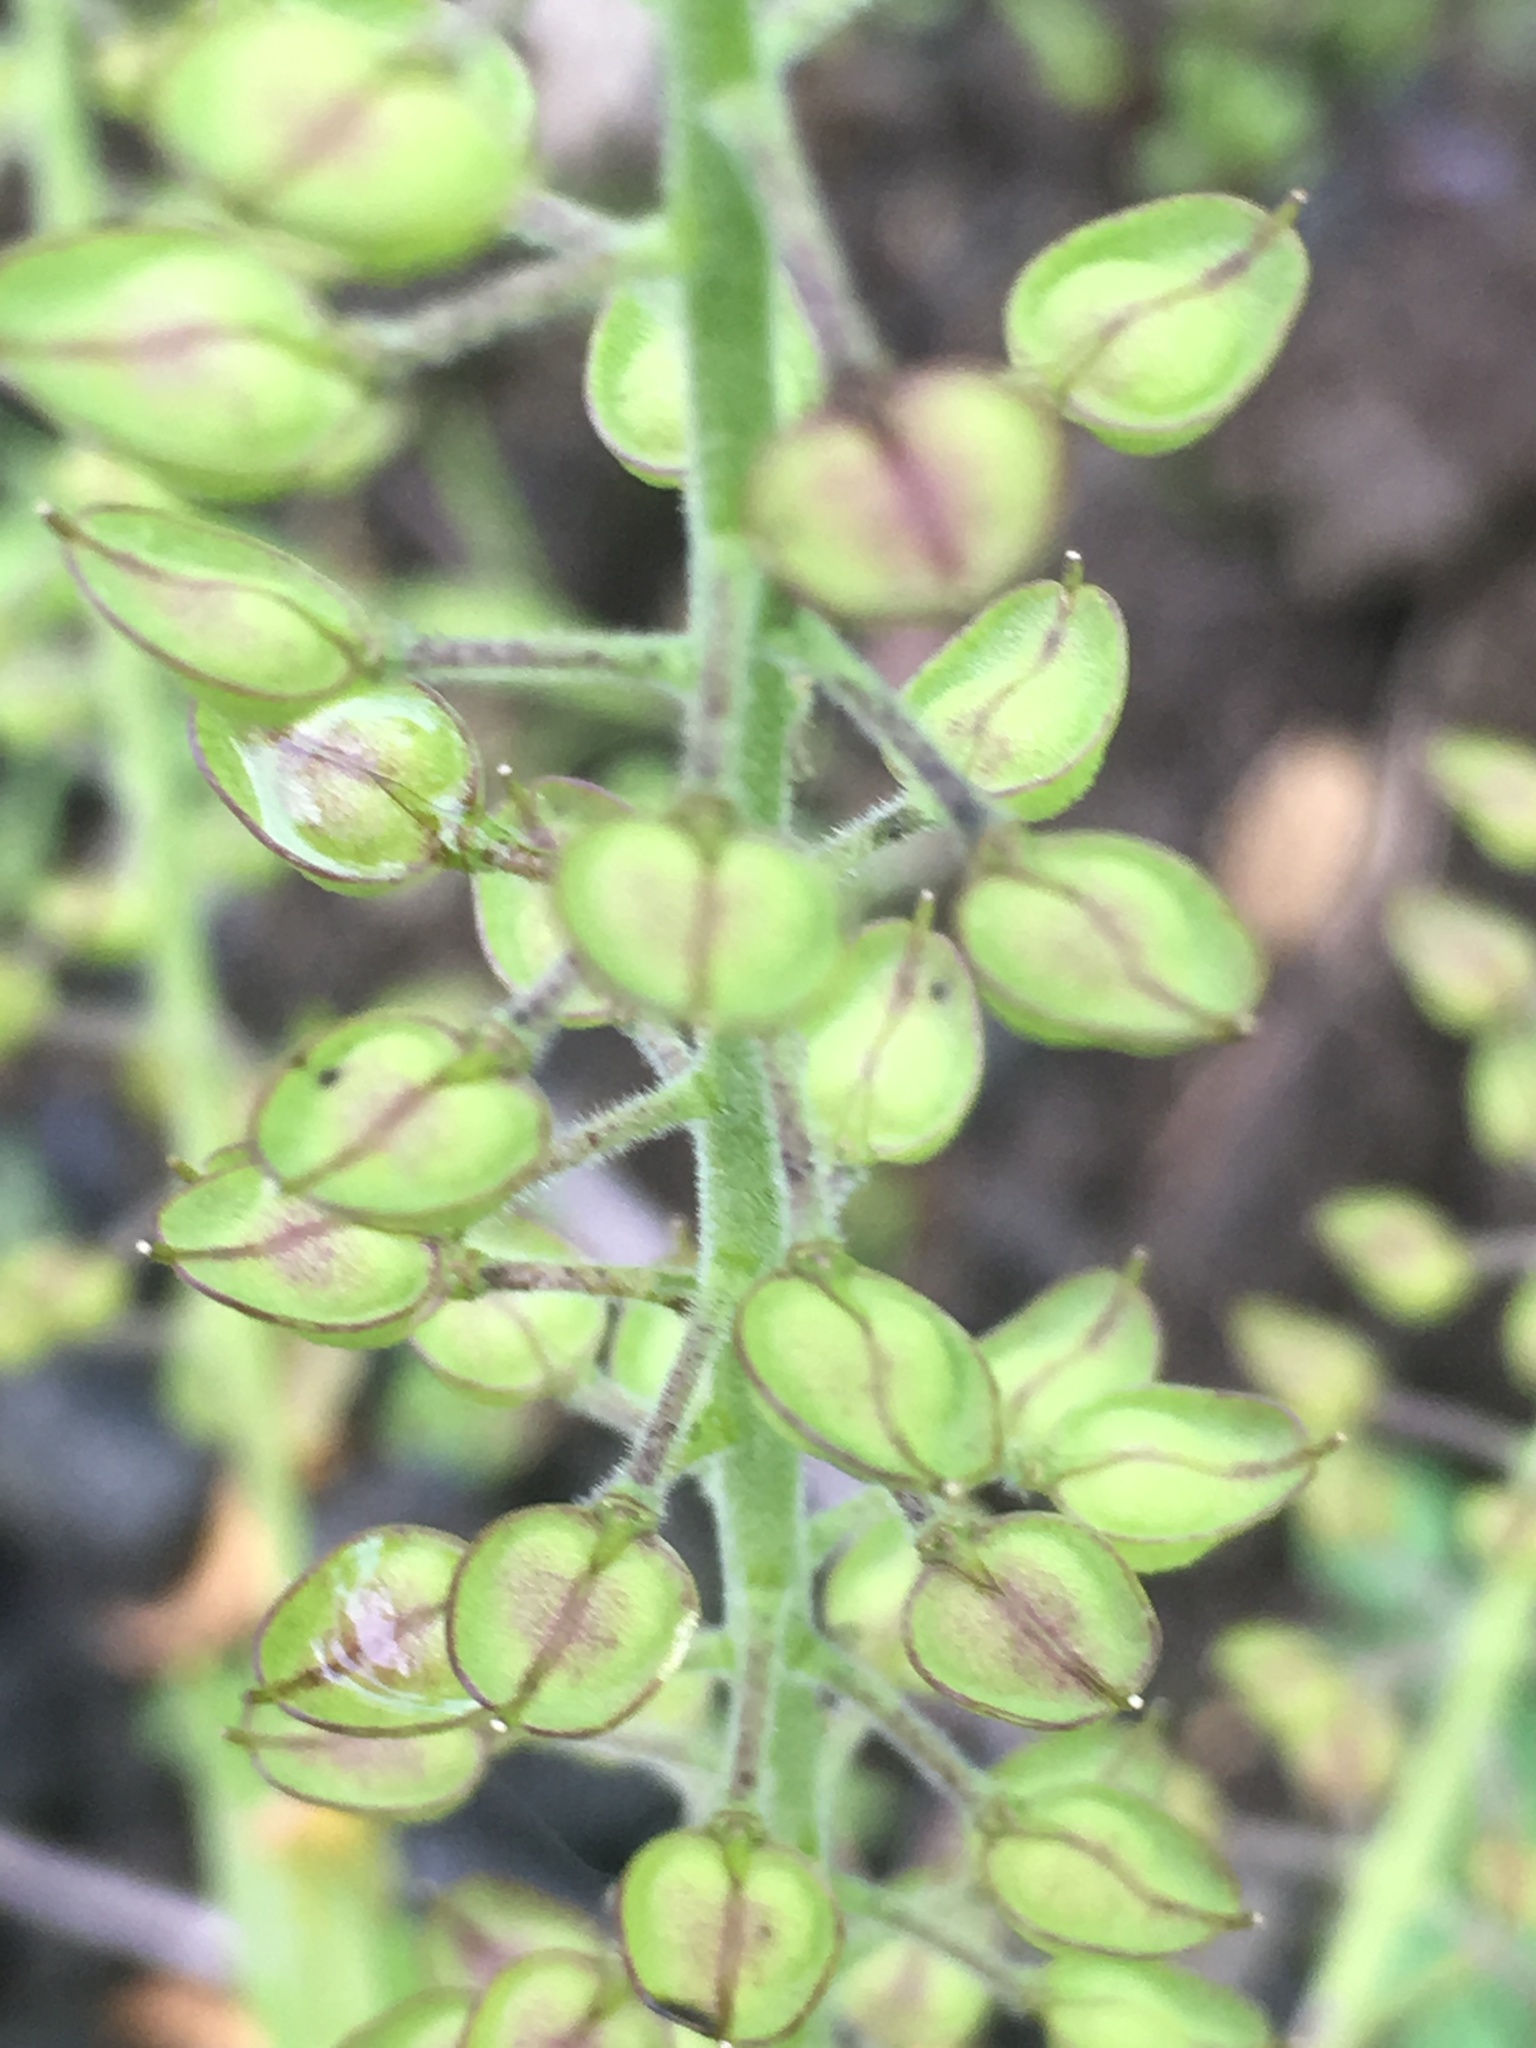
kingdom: Plantae
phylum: Tracheophyta
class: Magnoliopsida
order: Brassicales
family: Brassicaceae
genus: Lepidium
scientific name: Lepidium campestre
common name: Field pepperwort
